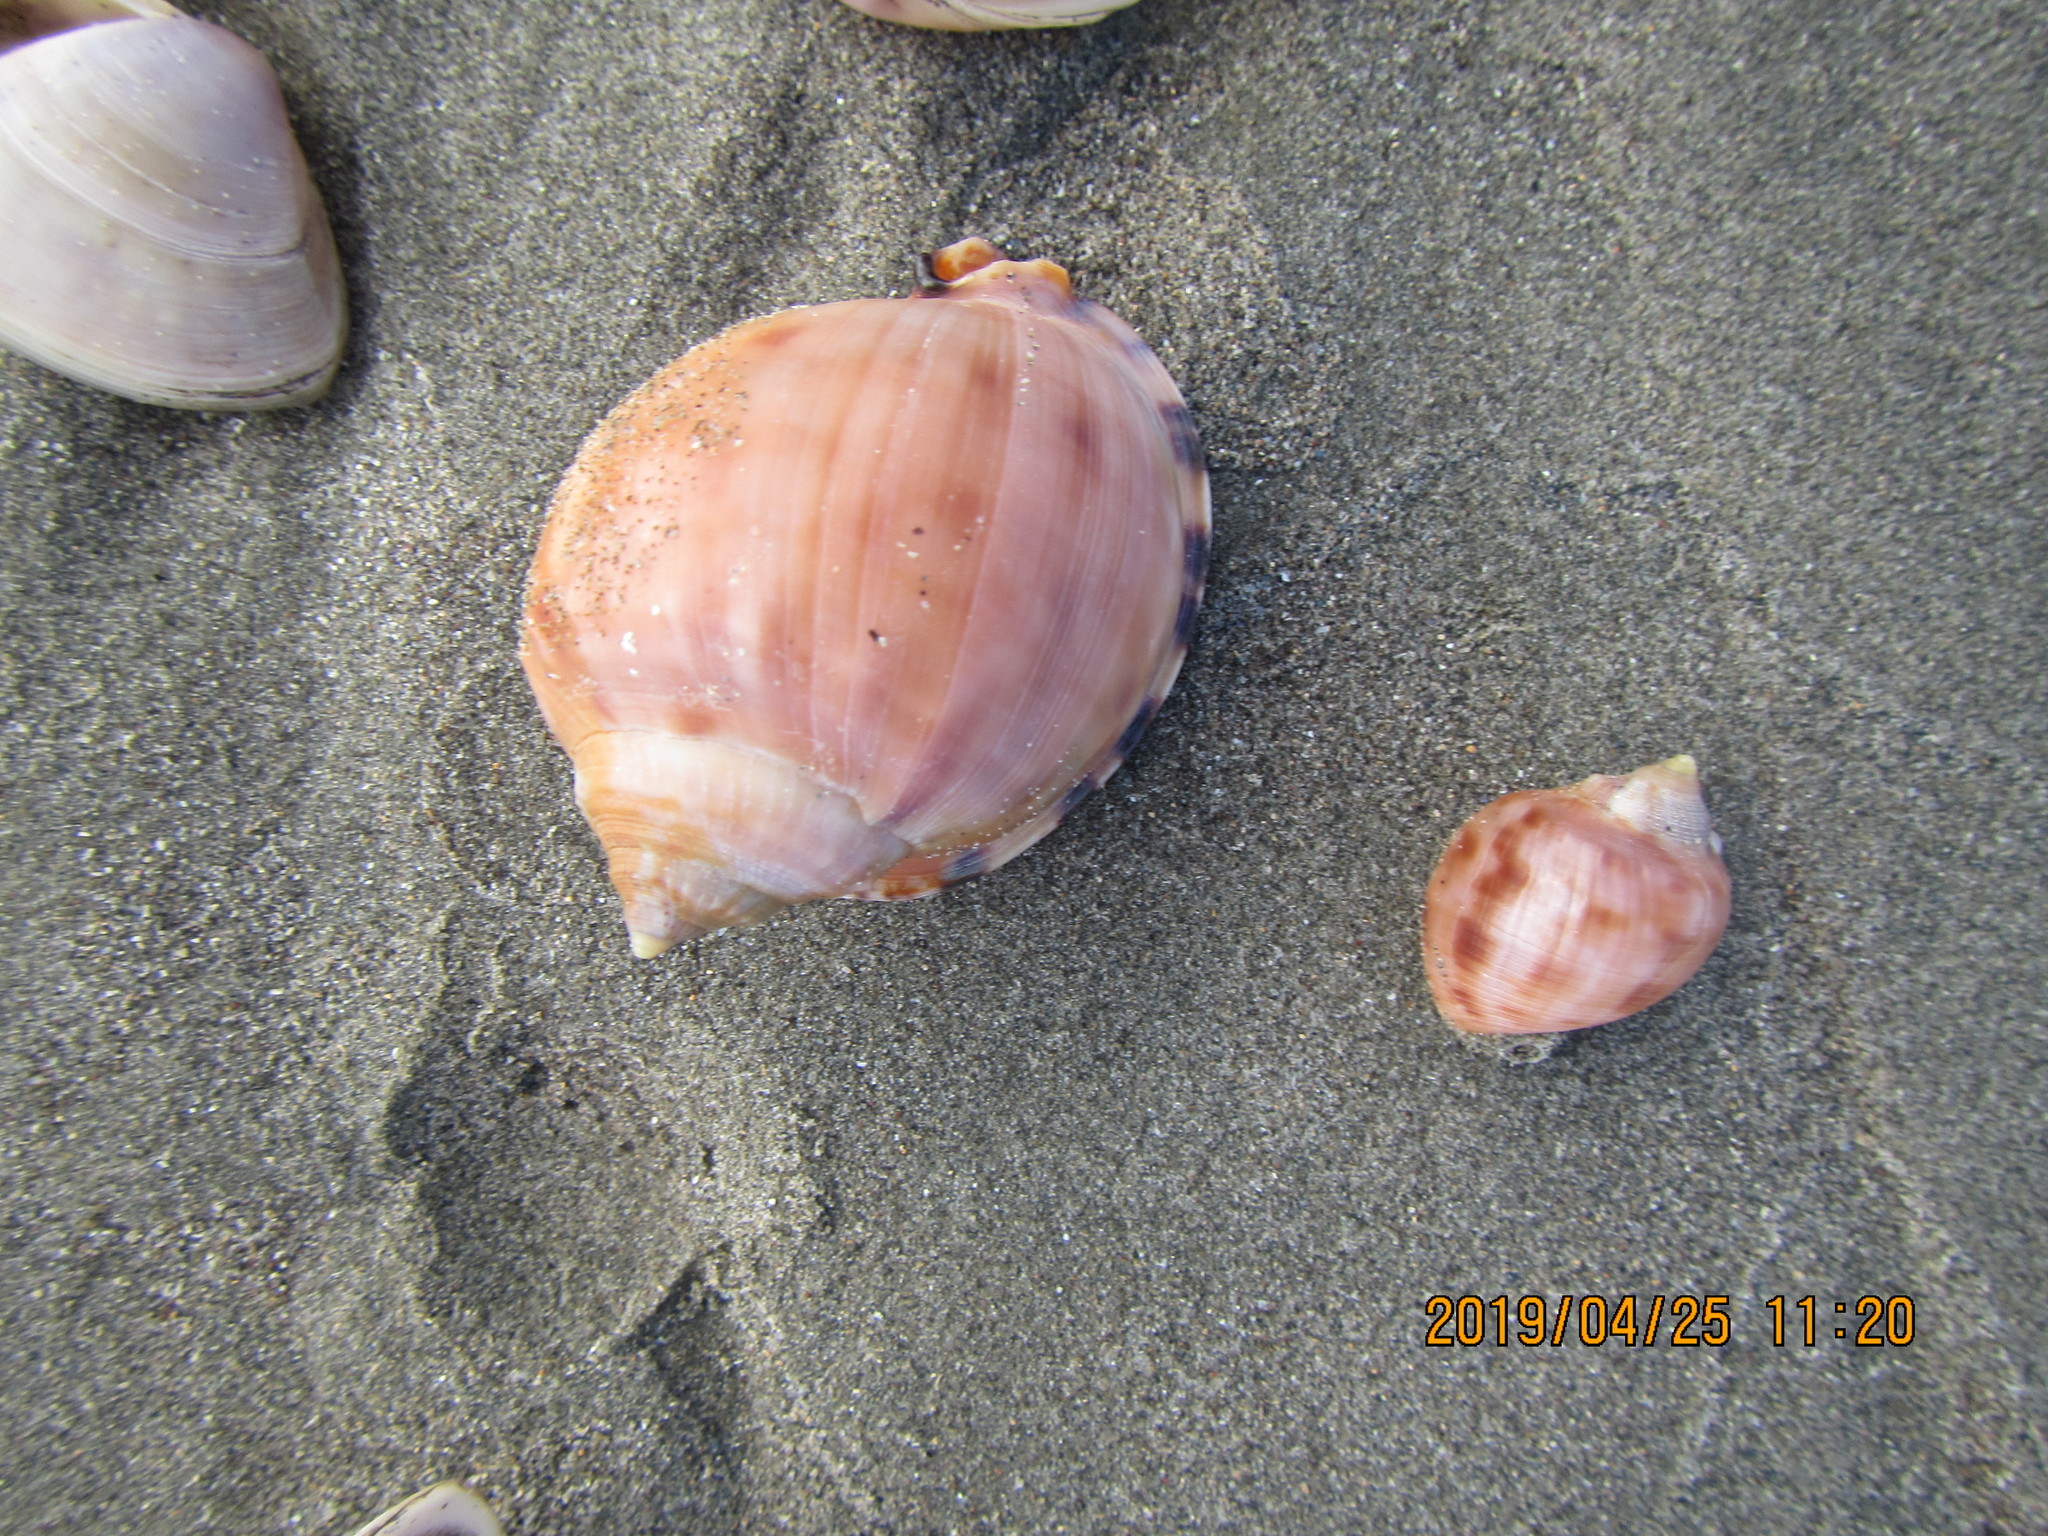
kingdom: Animalia
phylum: Mollusca
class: Gastropoda
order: Littorinimorpha
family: Cassidae
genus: Semicassis
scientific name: Semicassis pyrum
